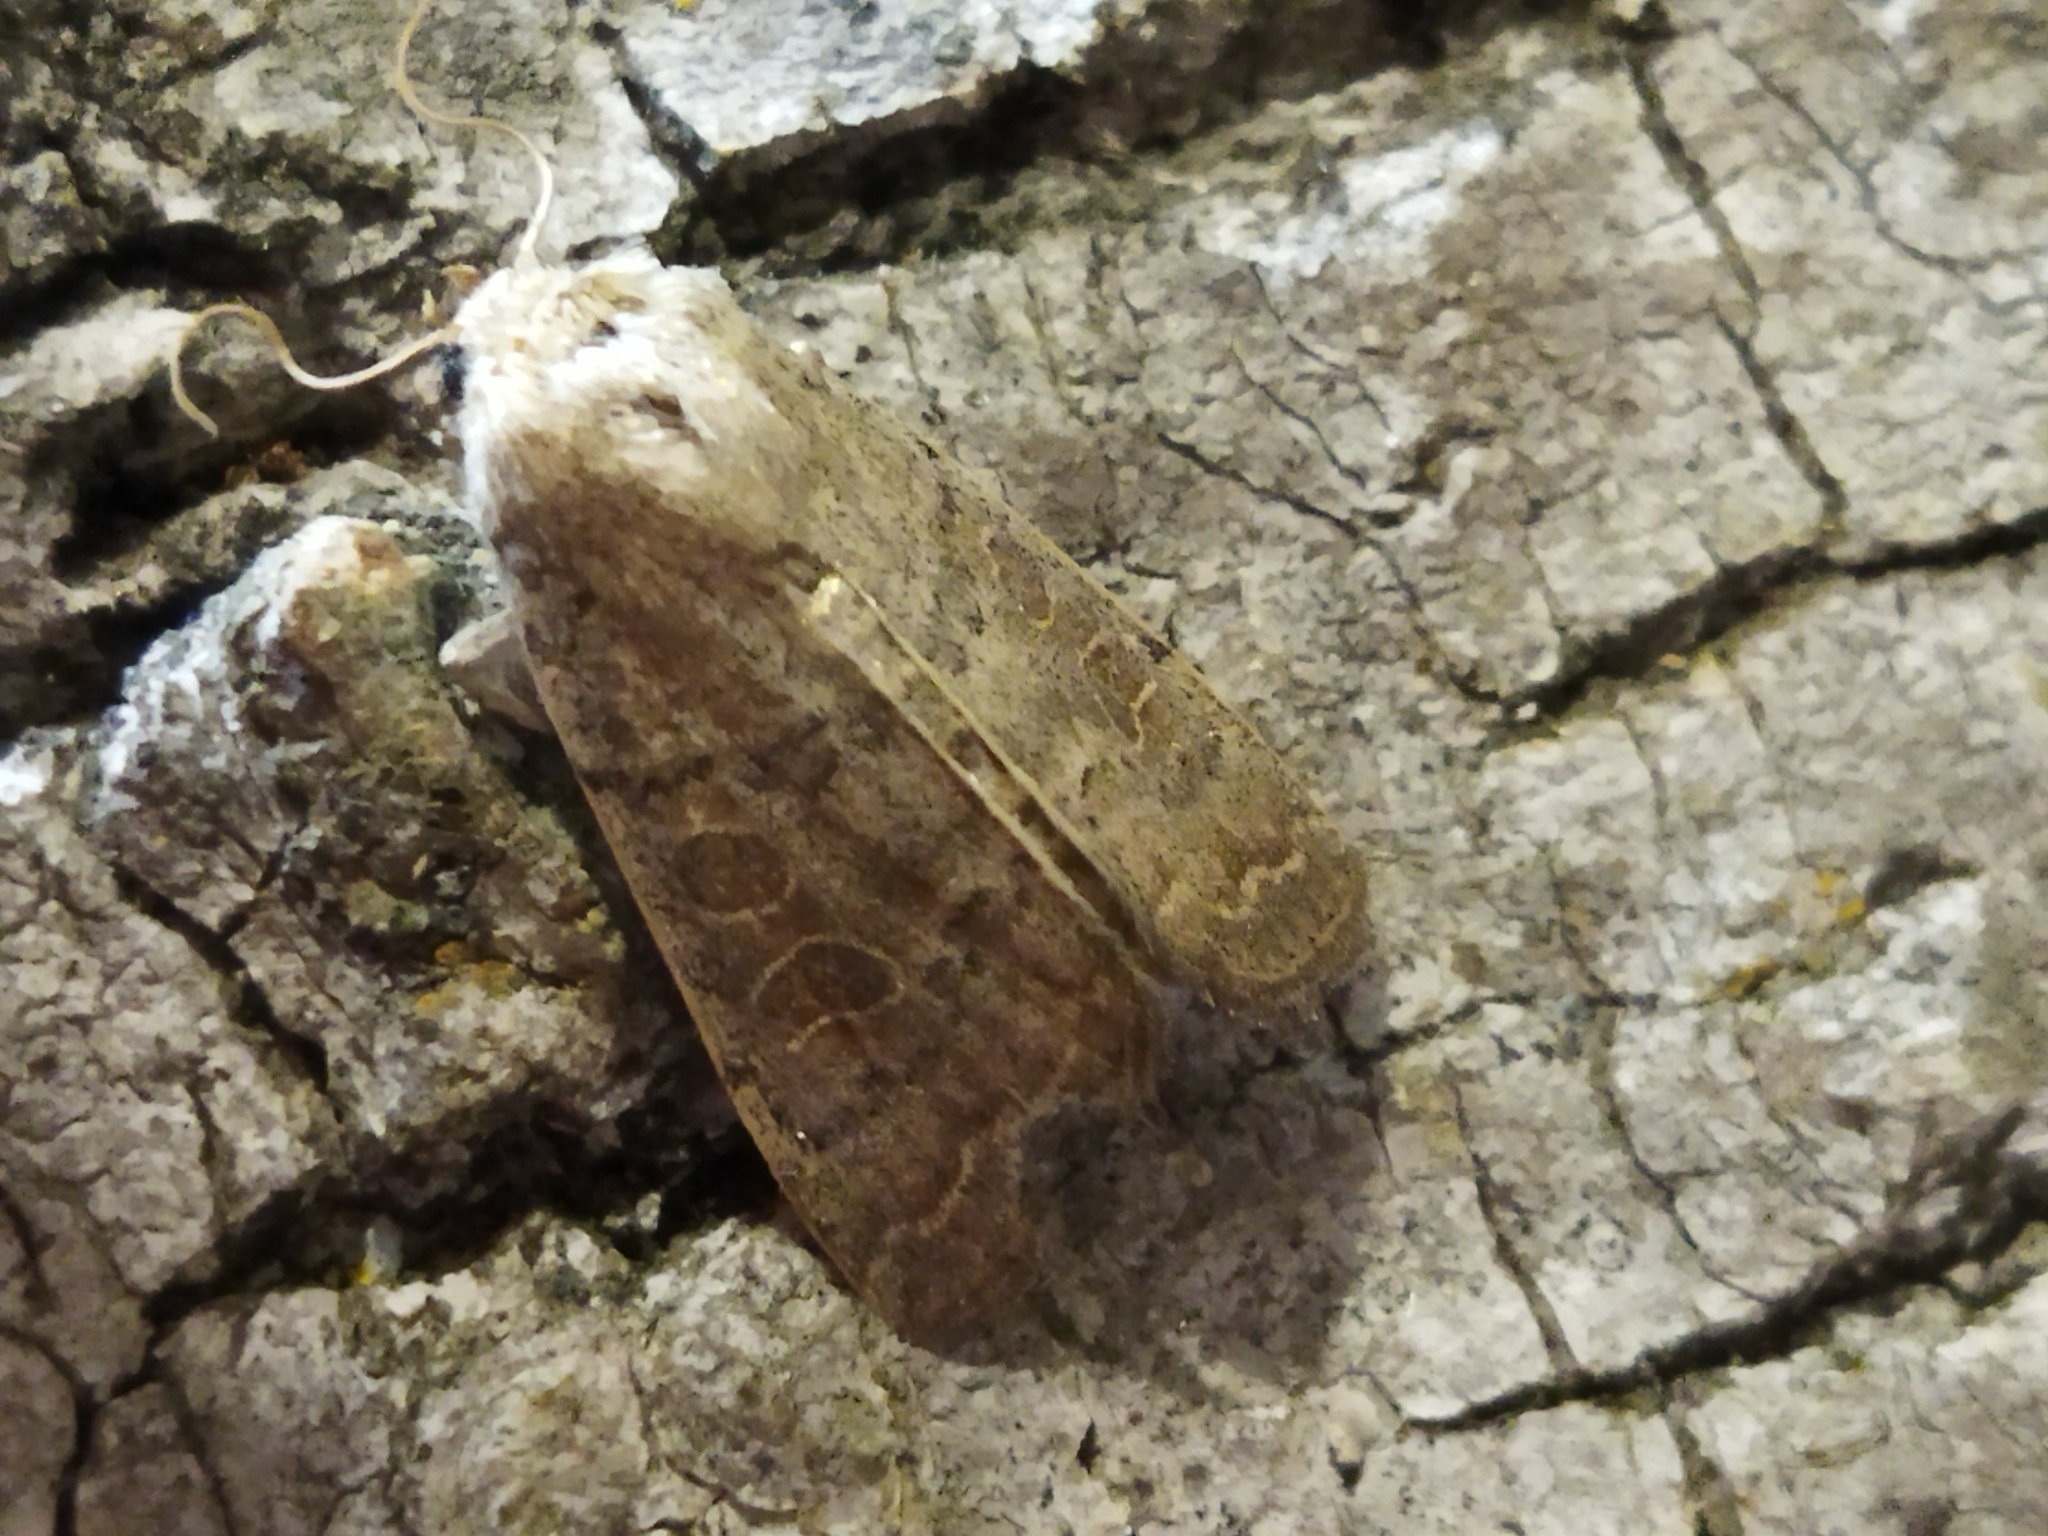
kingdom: Animalia
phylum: Arthropoda
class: Insecta
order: Lepidoptera
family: Noctuidae
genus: Hoplodrina
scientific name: Hoplodrina ambigua
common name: Vine's rustic
